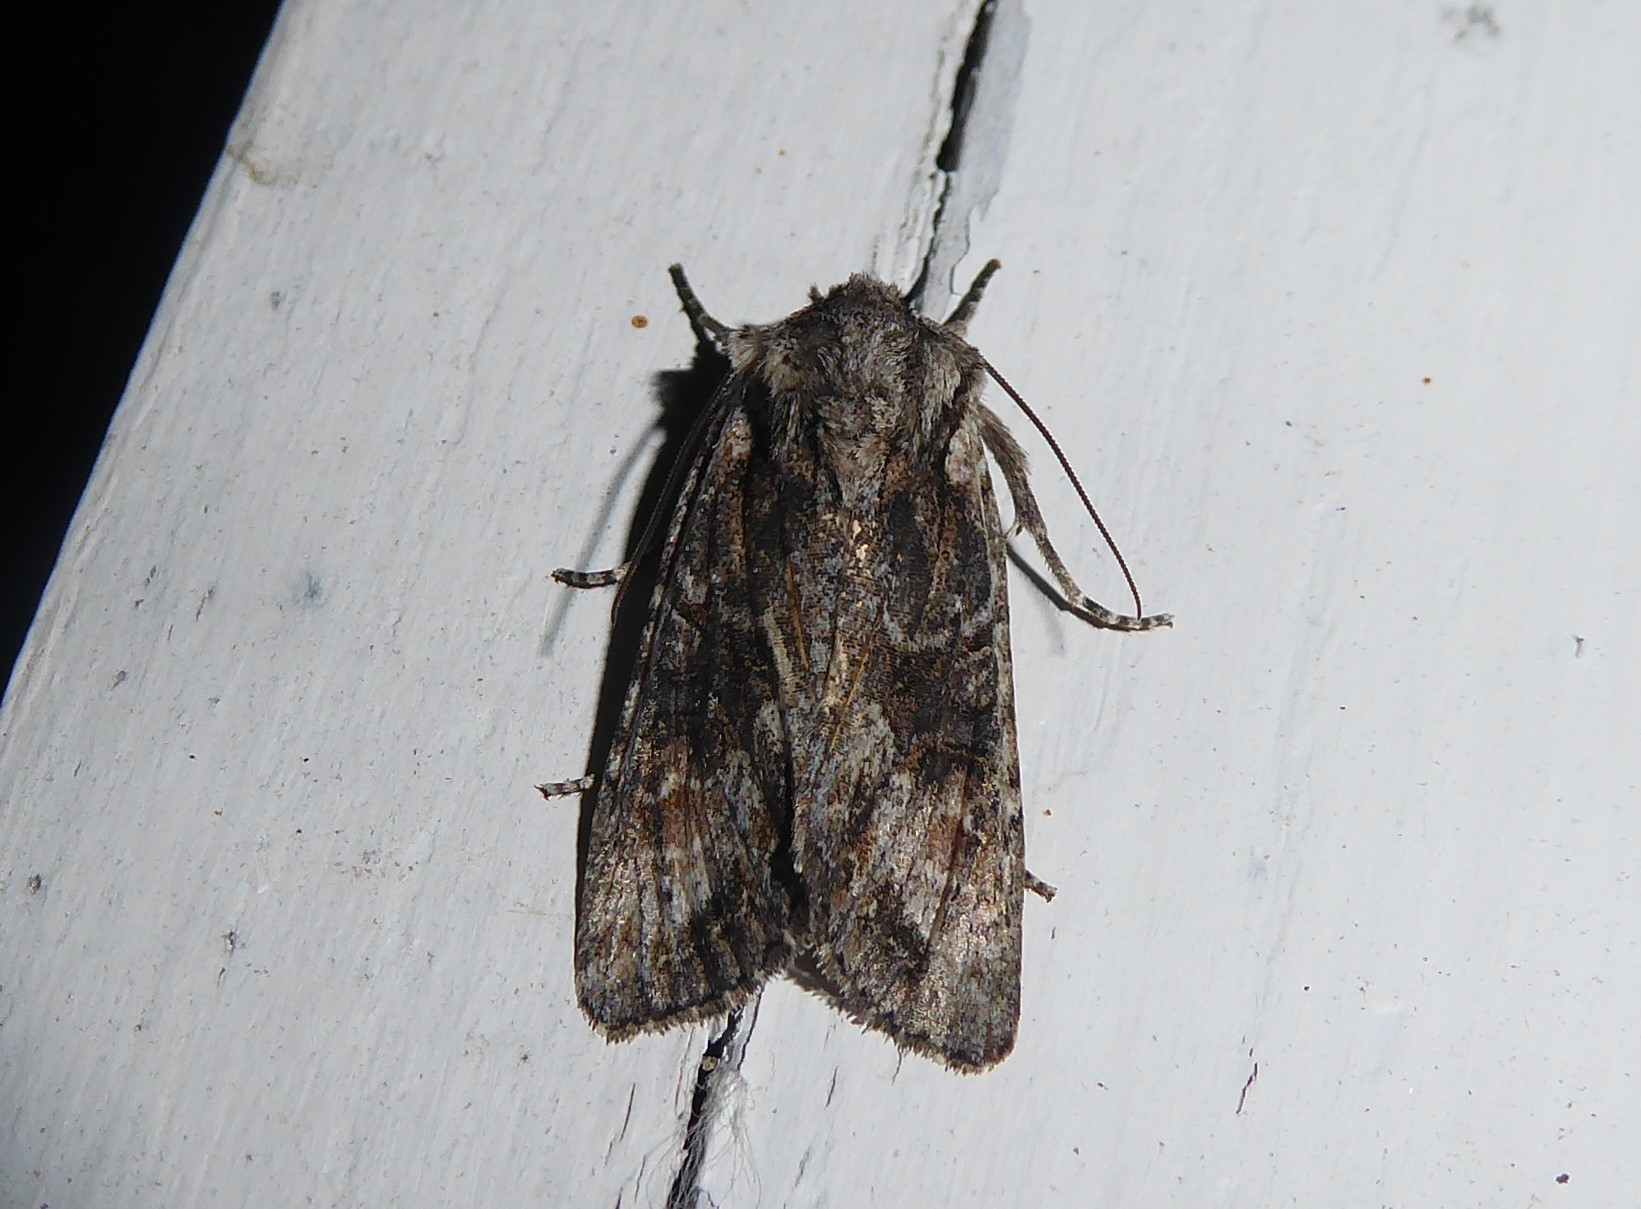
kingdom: Animalia
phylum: Arthropoda
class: Insecta
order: Lepidoptera
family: Noctuidae
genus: Ichneutica
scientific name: Ichneutica mutans
